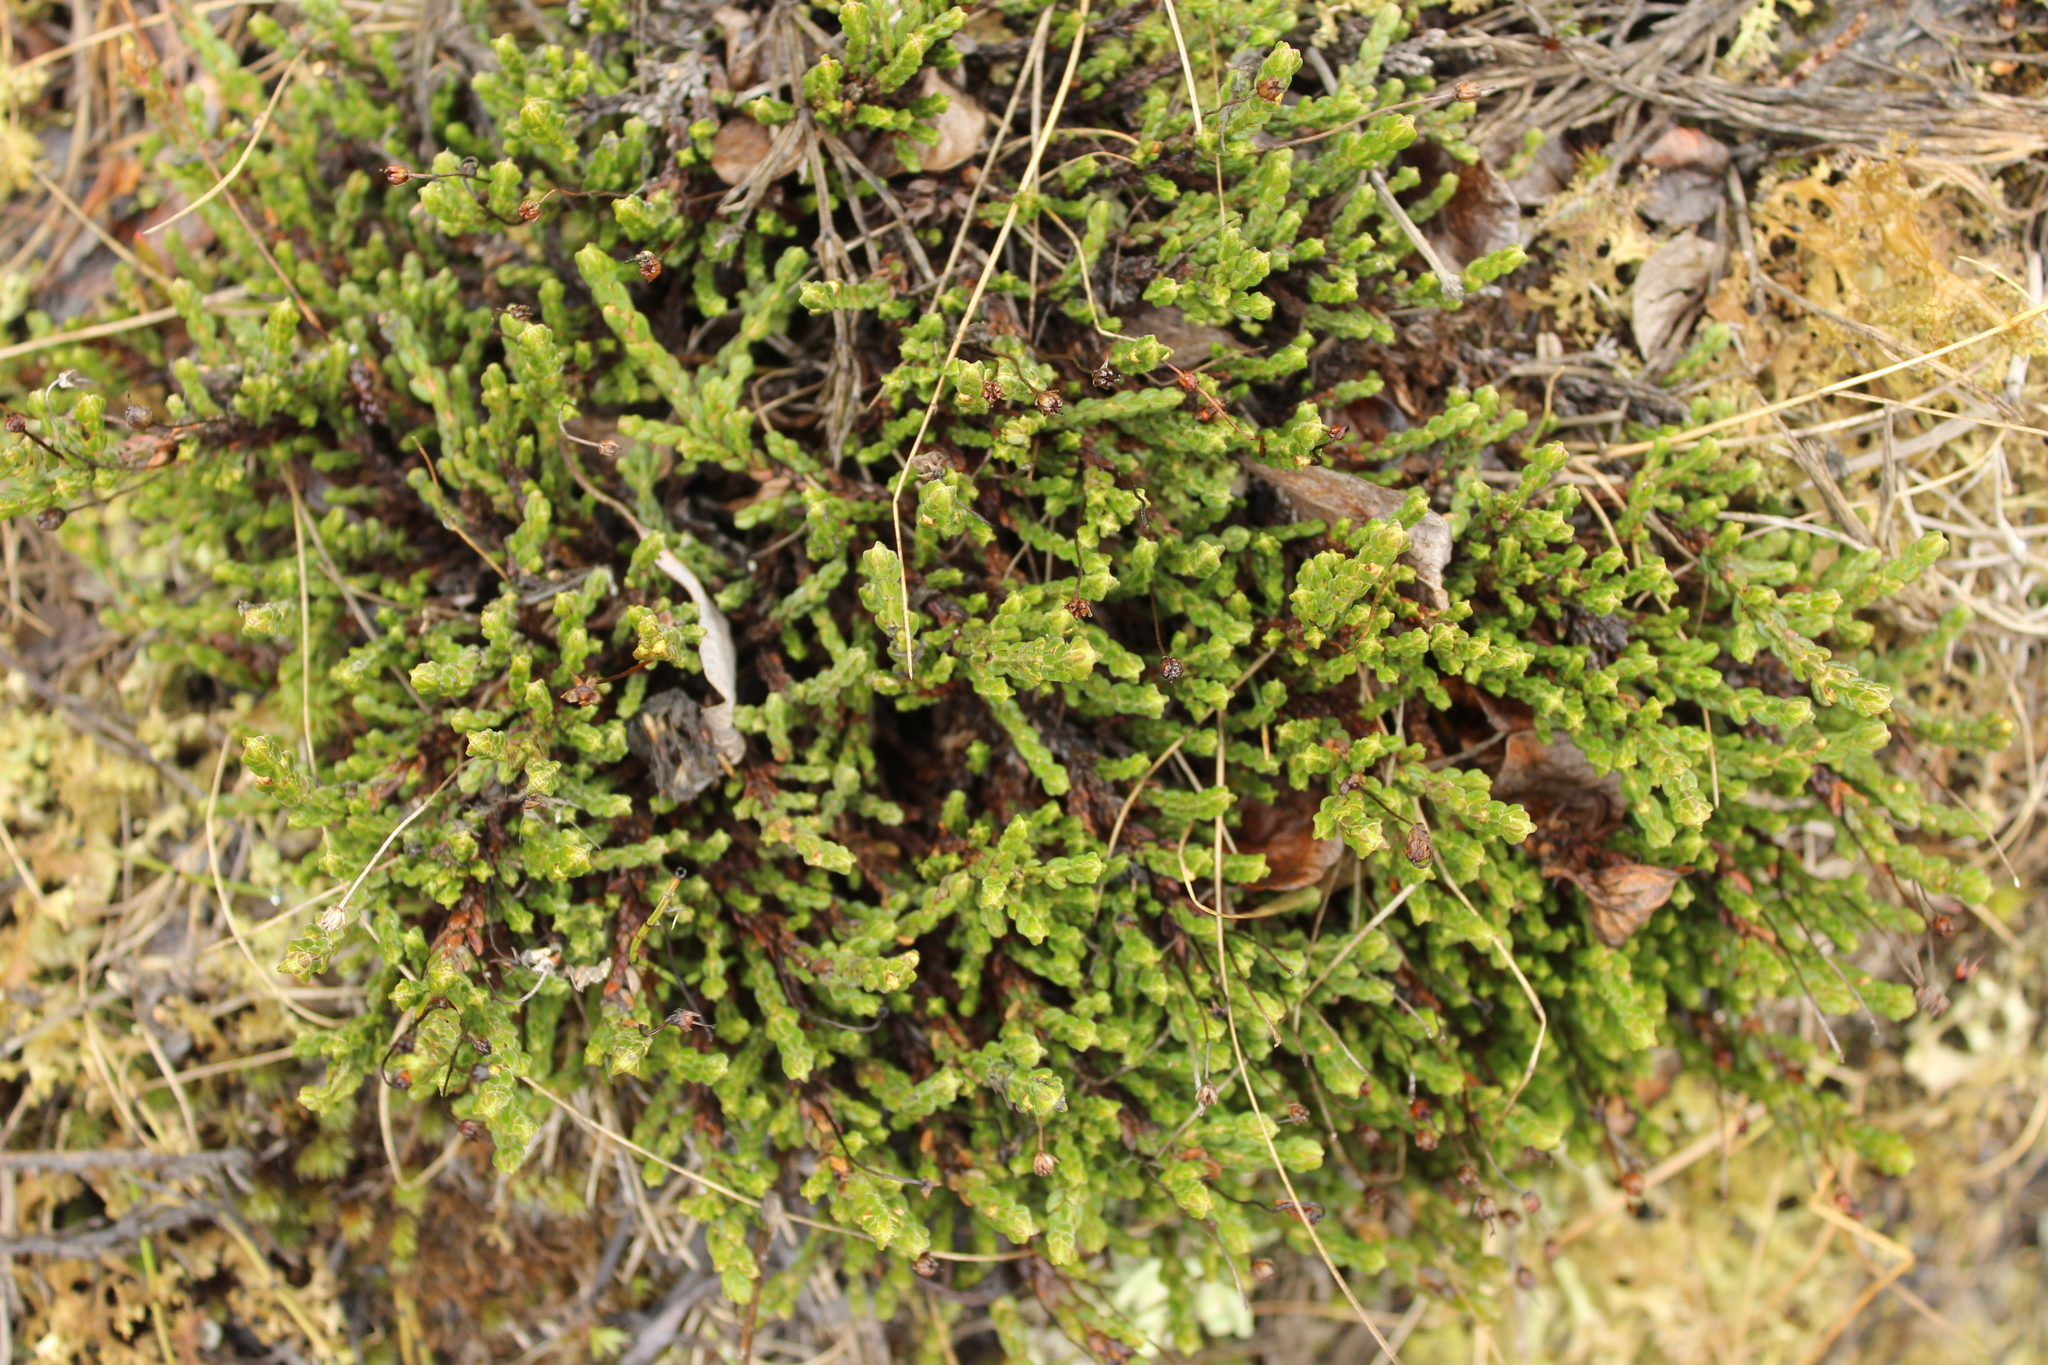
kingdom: Plantae
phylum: Tracheophyta
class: Magnoliopsida
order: Ericales
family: Ericaceae
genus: Cassiope
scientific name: Cassiope tetragona
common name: Arctic bell heather
